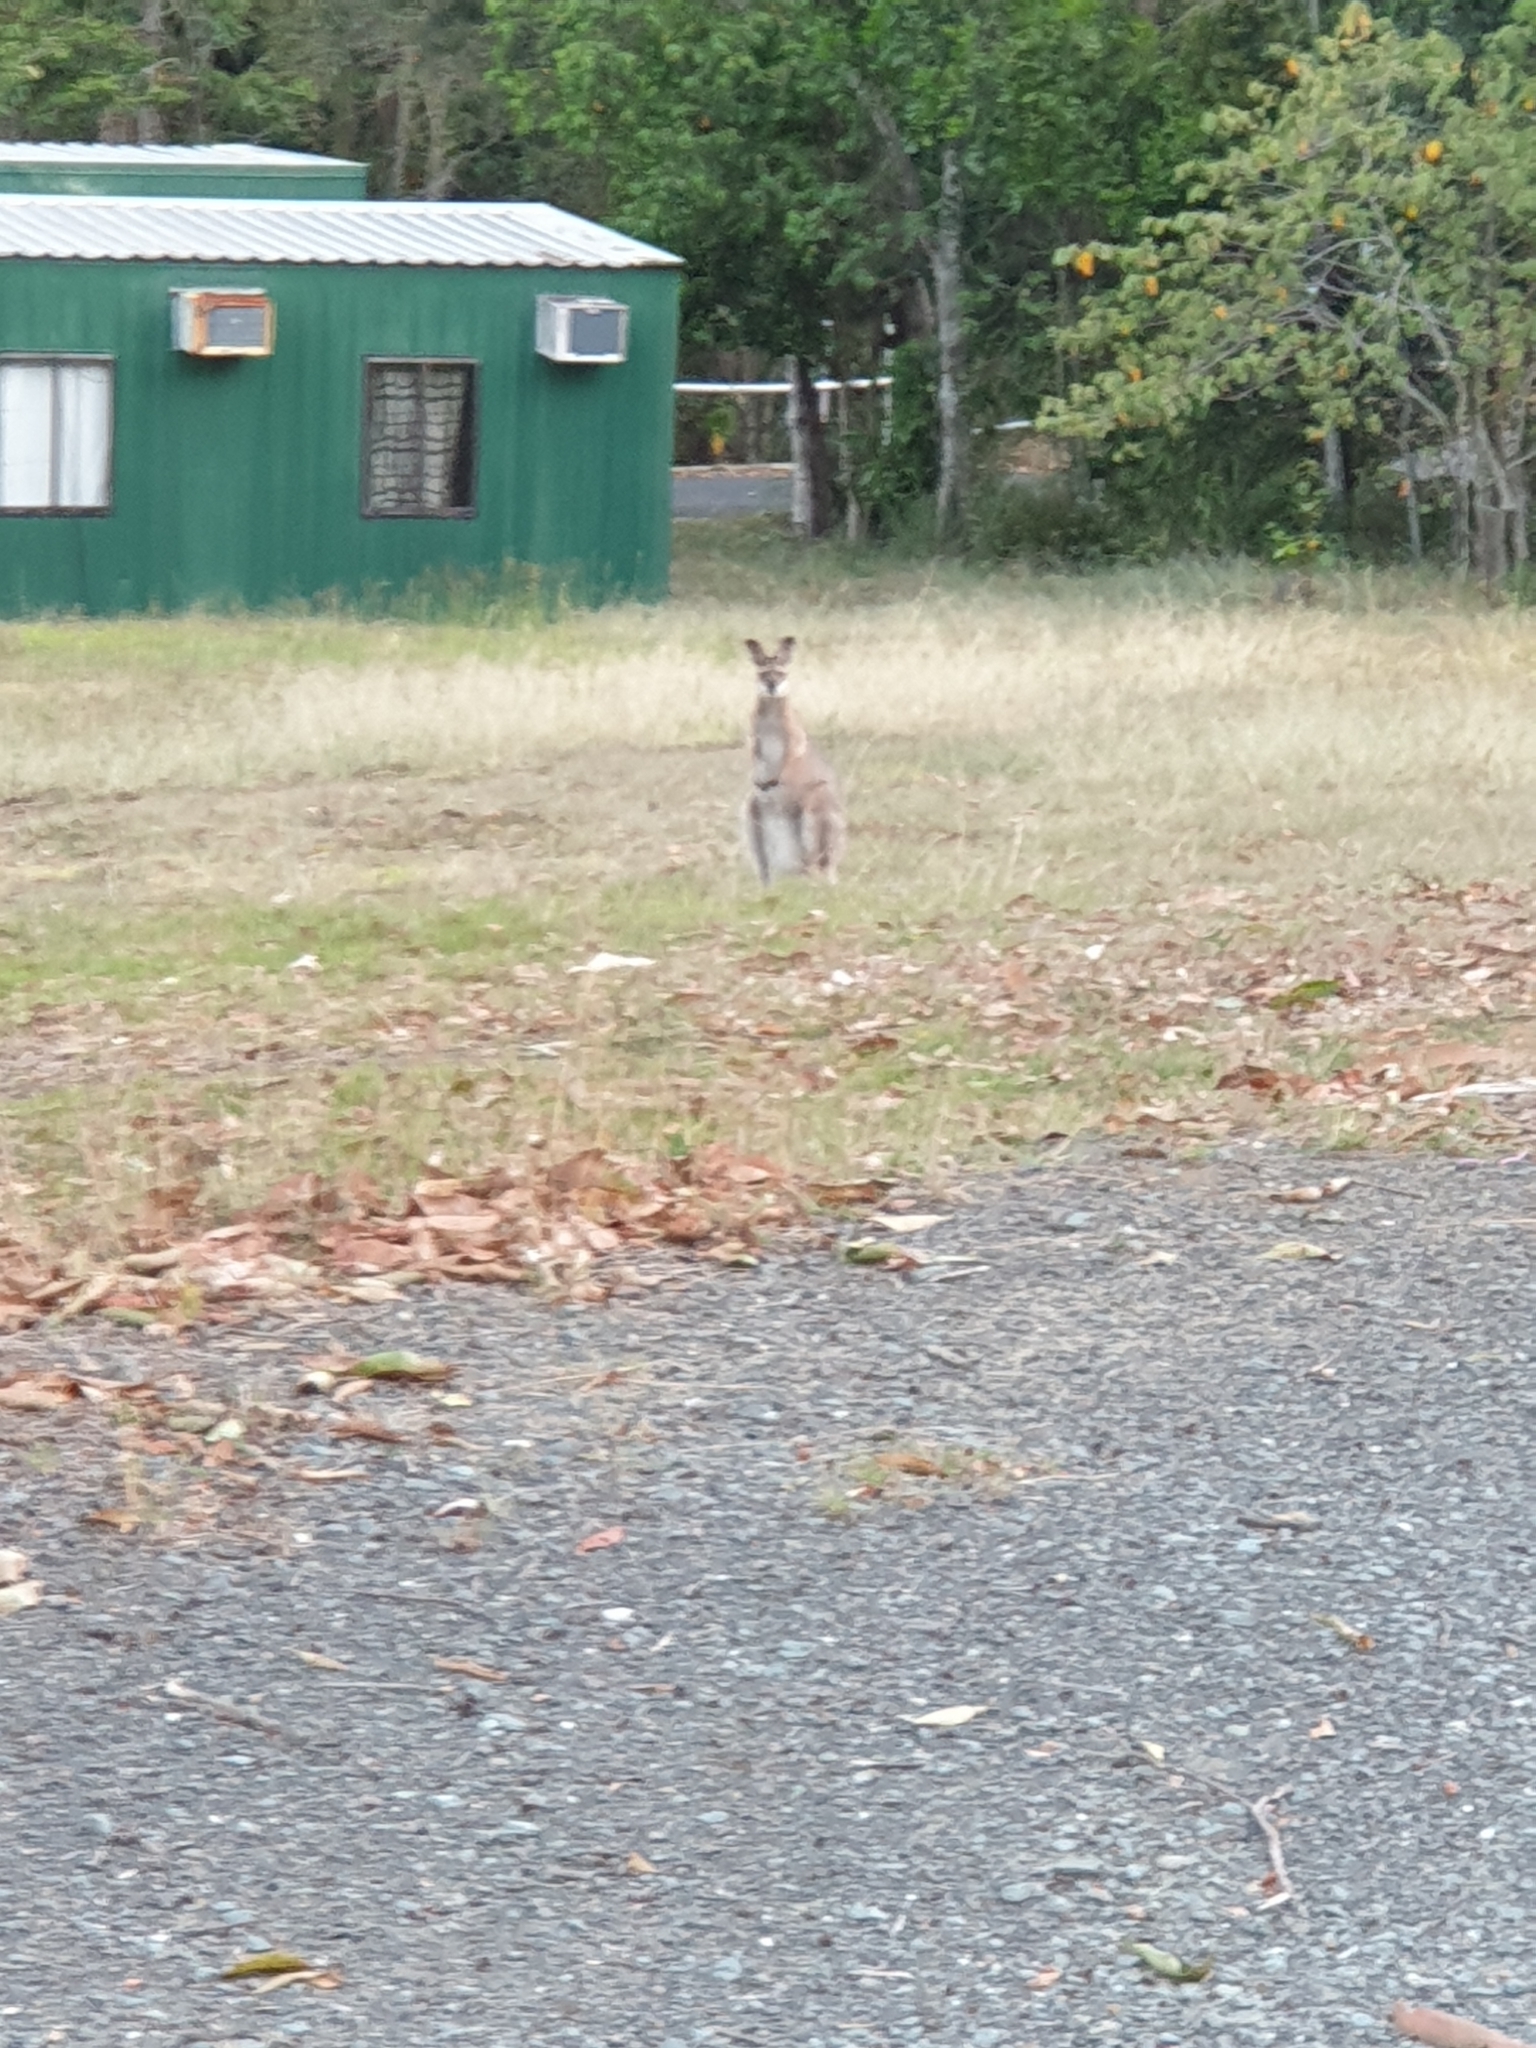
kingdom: Animalia
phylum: Chordata
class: Mammalia
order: Diprotodontia
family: Macropodidae
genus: Notamacropus
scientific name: Notamacropus rufogriseus
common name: Red-necked wallaby
